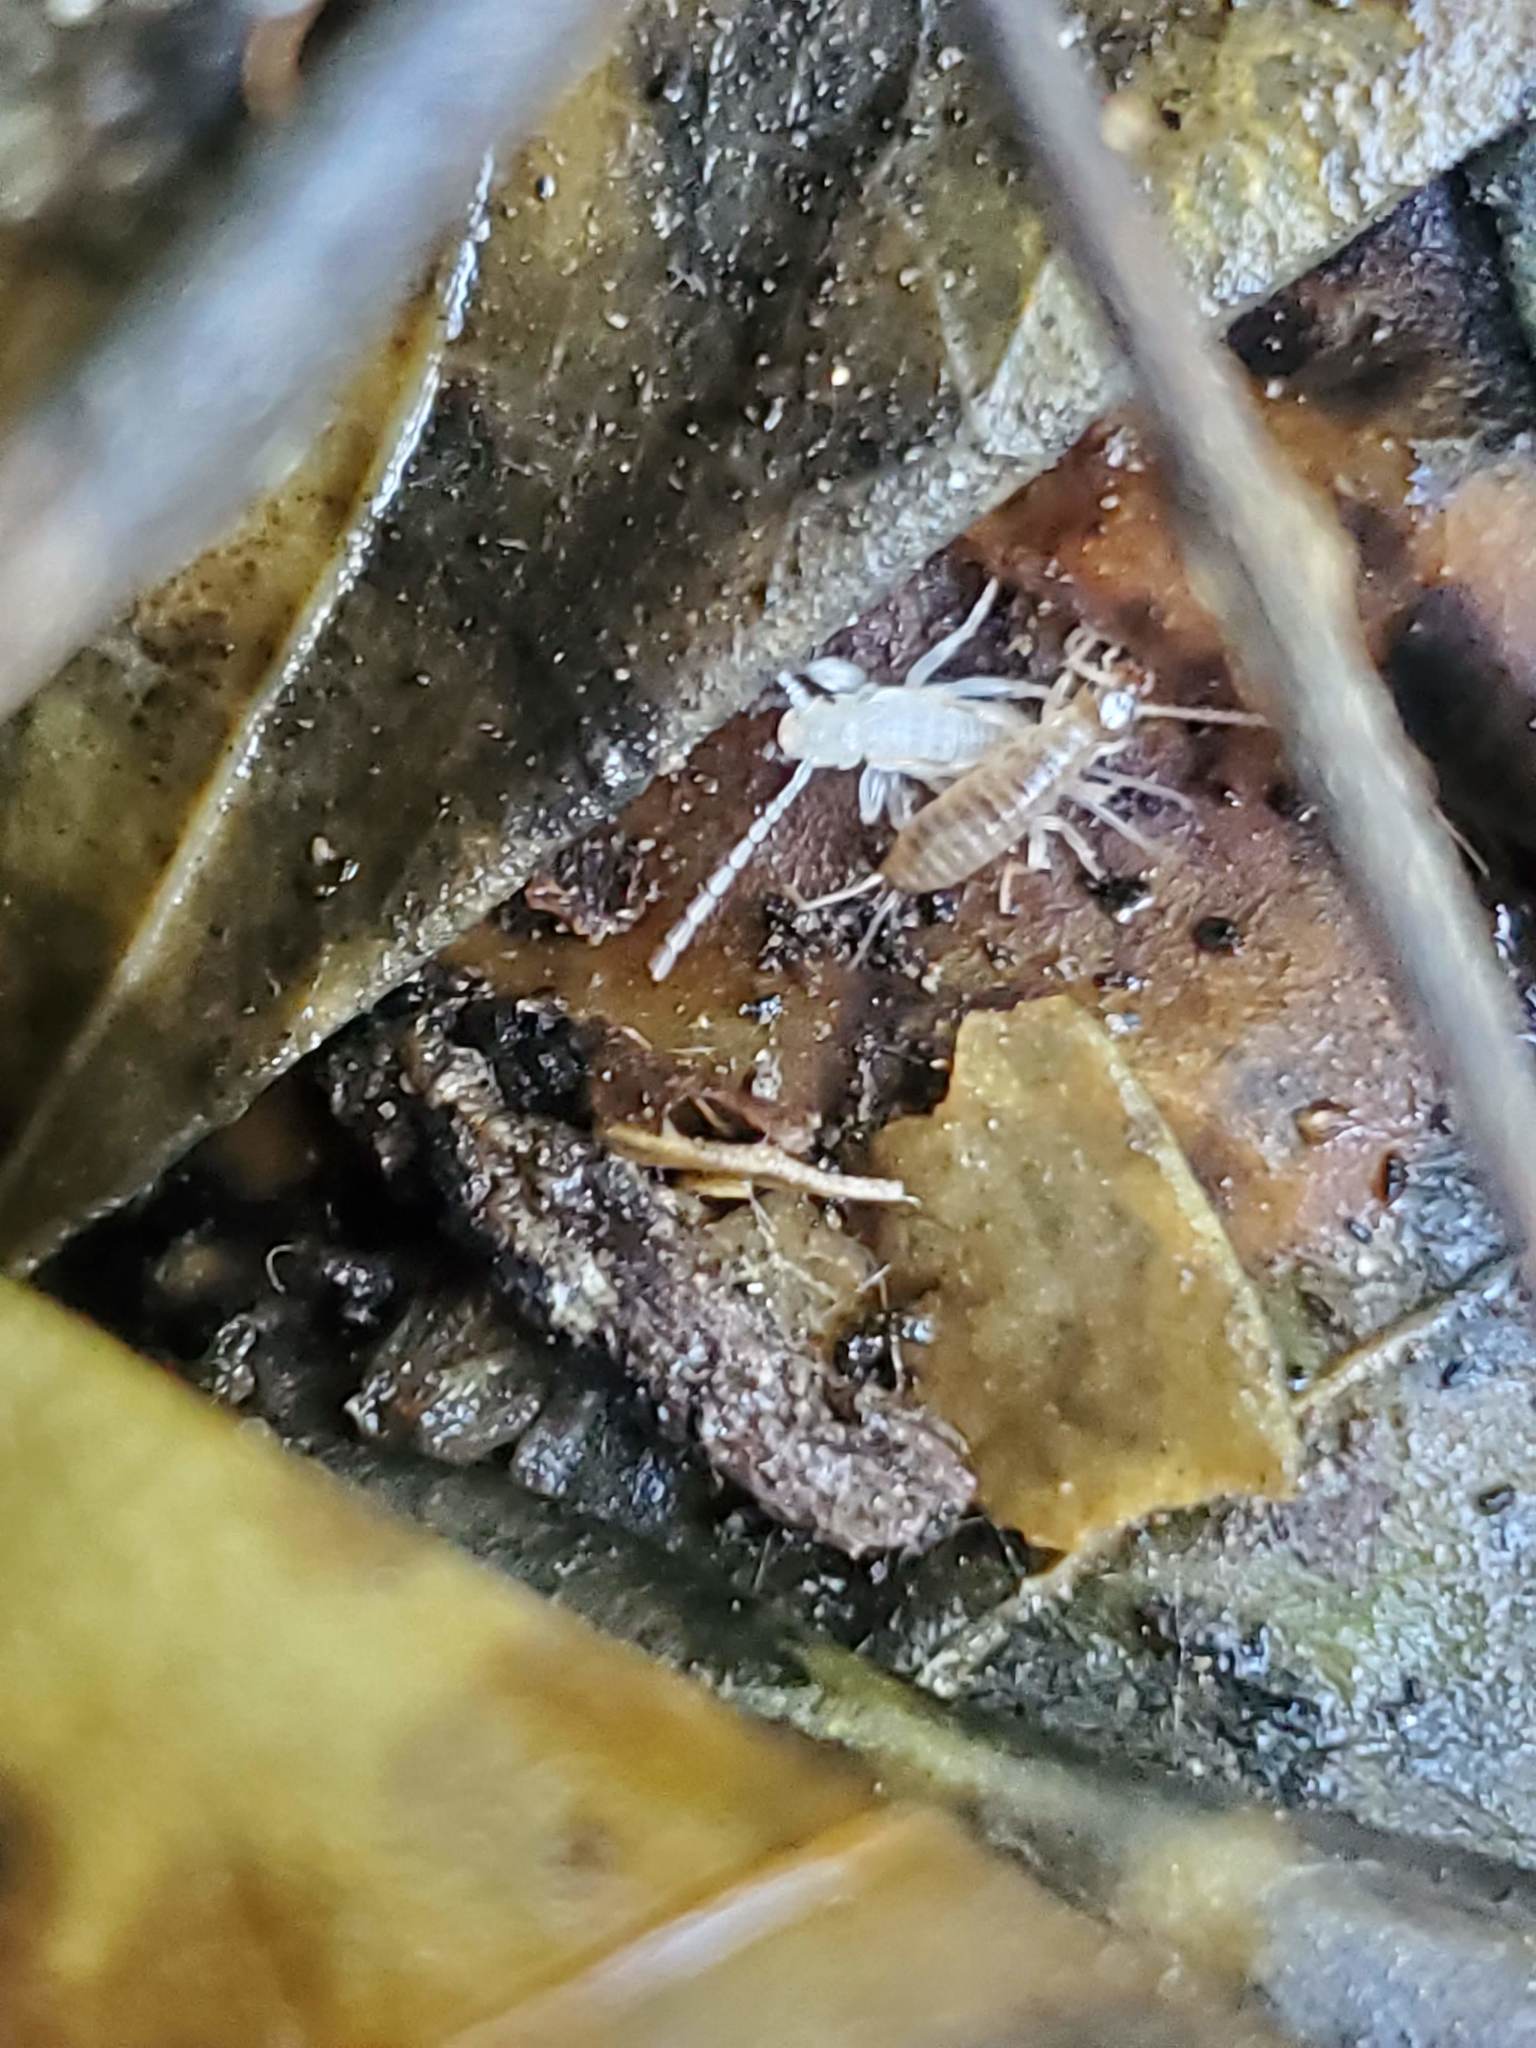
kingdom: Animalia
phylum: Arthropoda
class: Insecta
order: Dermaptera
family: Forficulidae
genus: Forficula
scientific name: Forficula dentata
